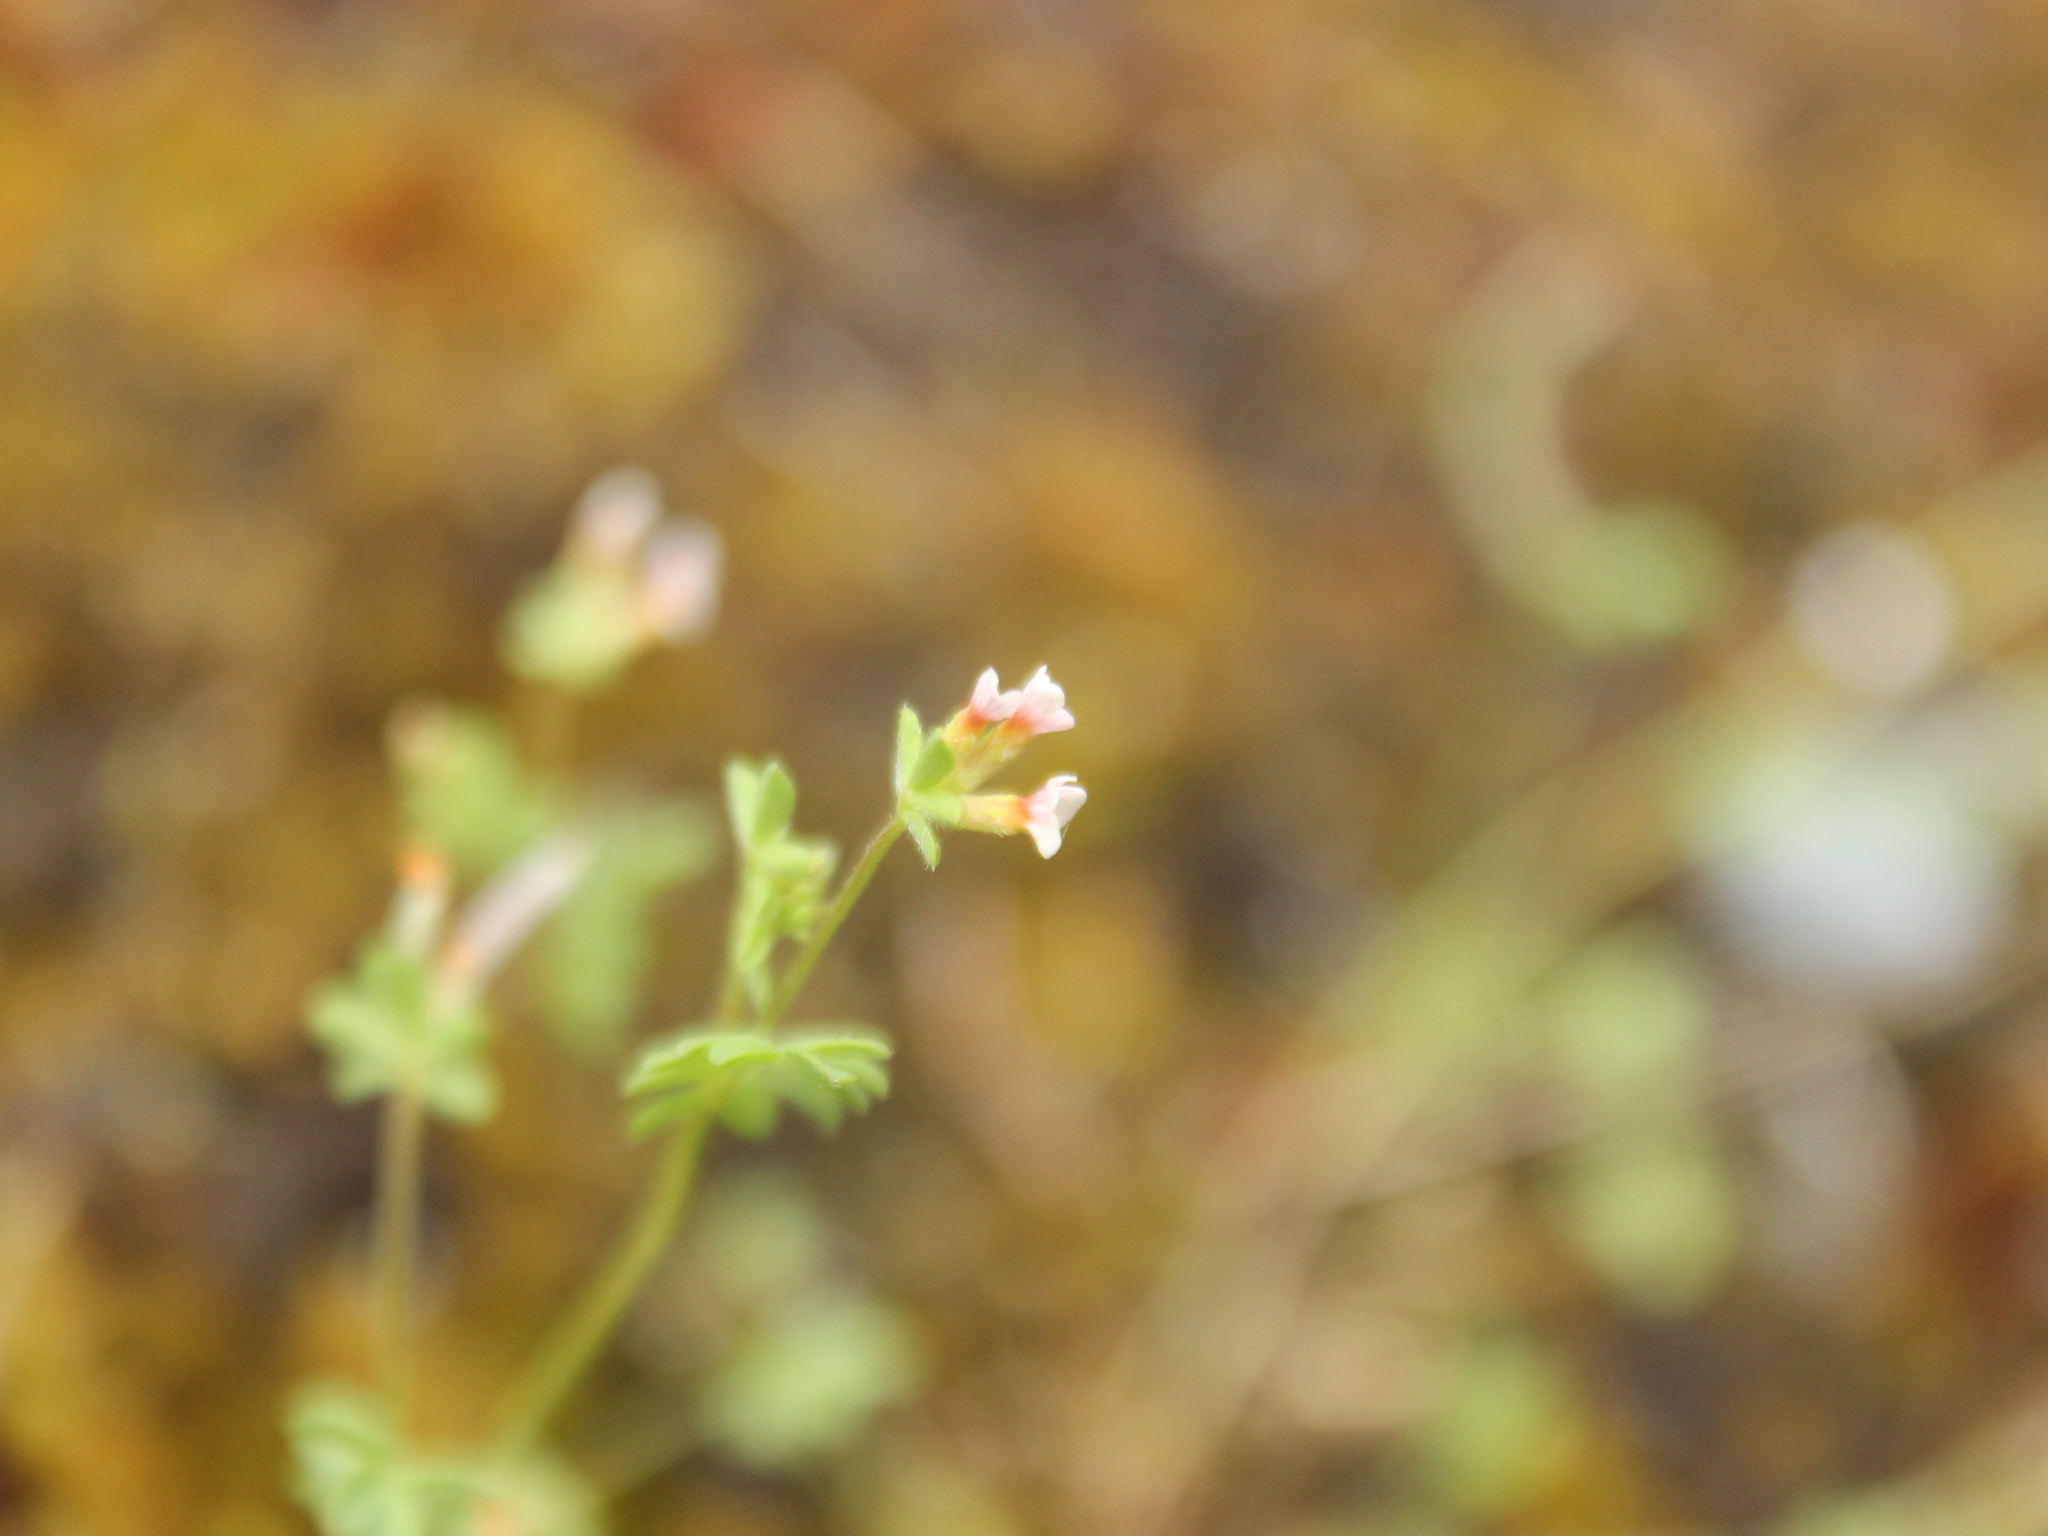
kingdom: Plantae
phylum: Tracheophyta
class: Magnoliopsida
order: Fabales
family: Fabaceae
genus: Ornithopus
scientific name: Ornithopus perpusillus
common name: Bird's-foot
